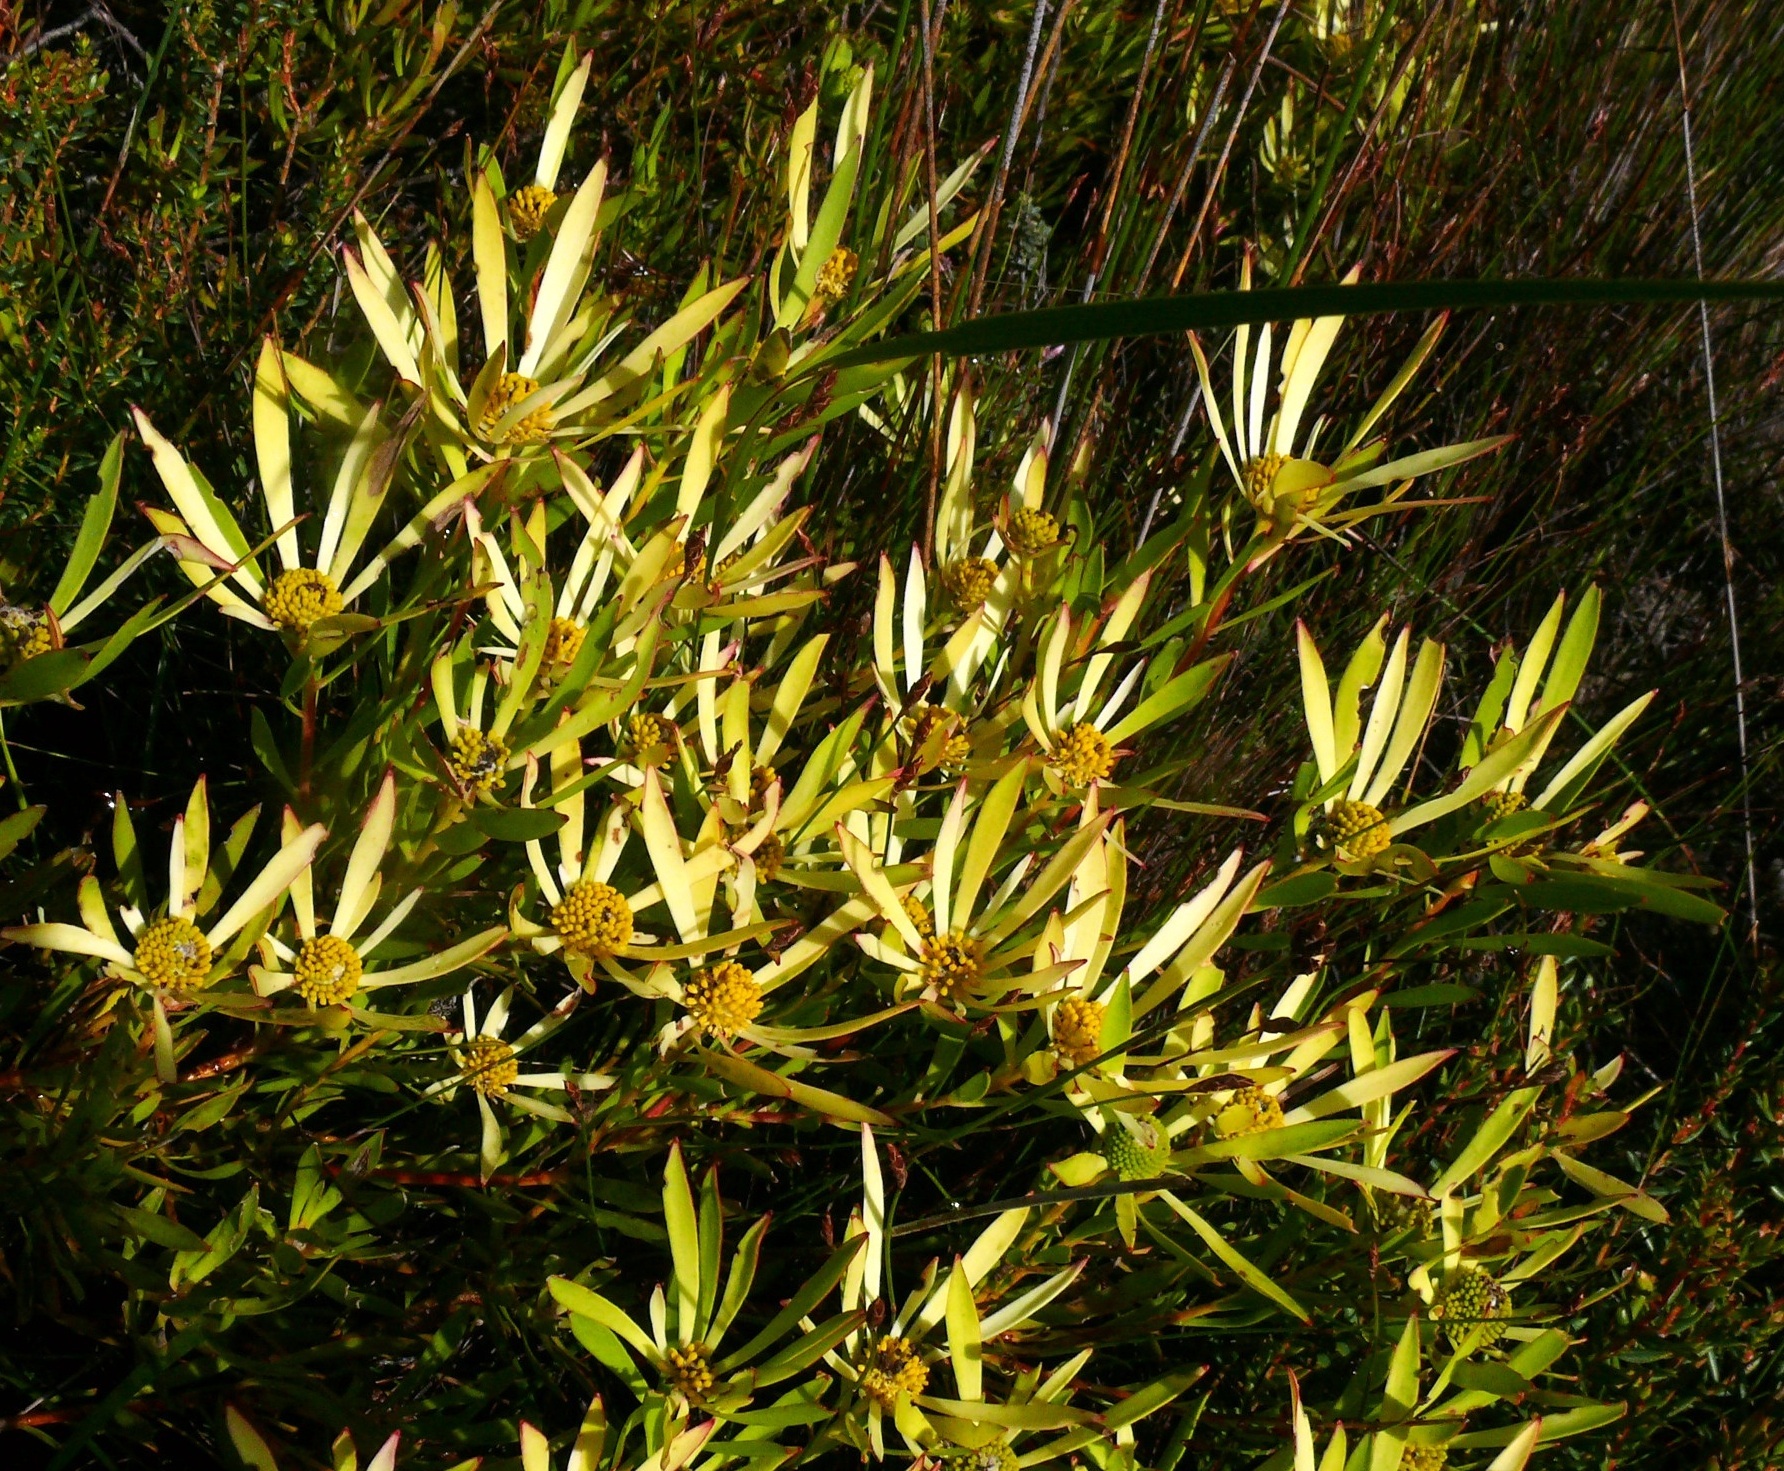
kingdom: Plantae
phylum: Tracheophyta
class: Magnoliopsida
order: Proteales
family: Proteaceae
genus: Leucadendron
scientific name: Leucadendron salignum
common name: Common sunshine conebush
